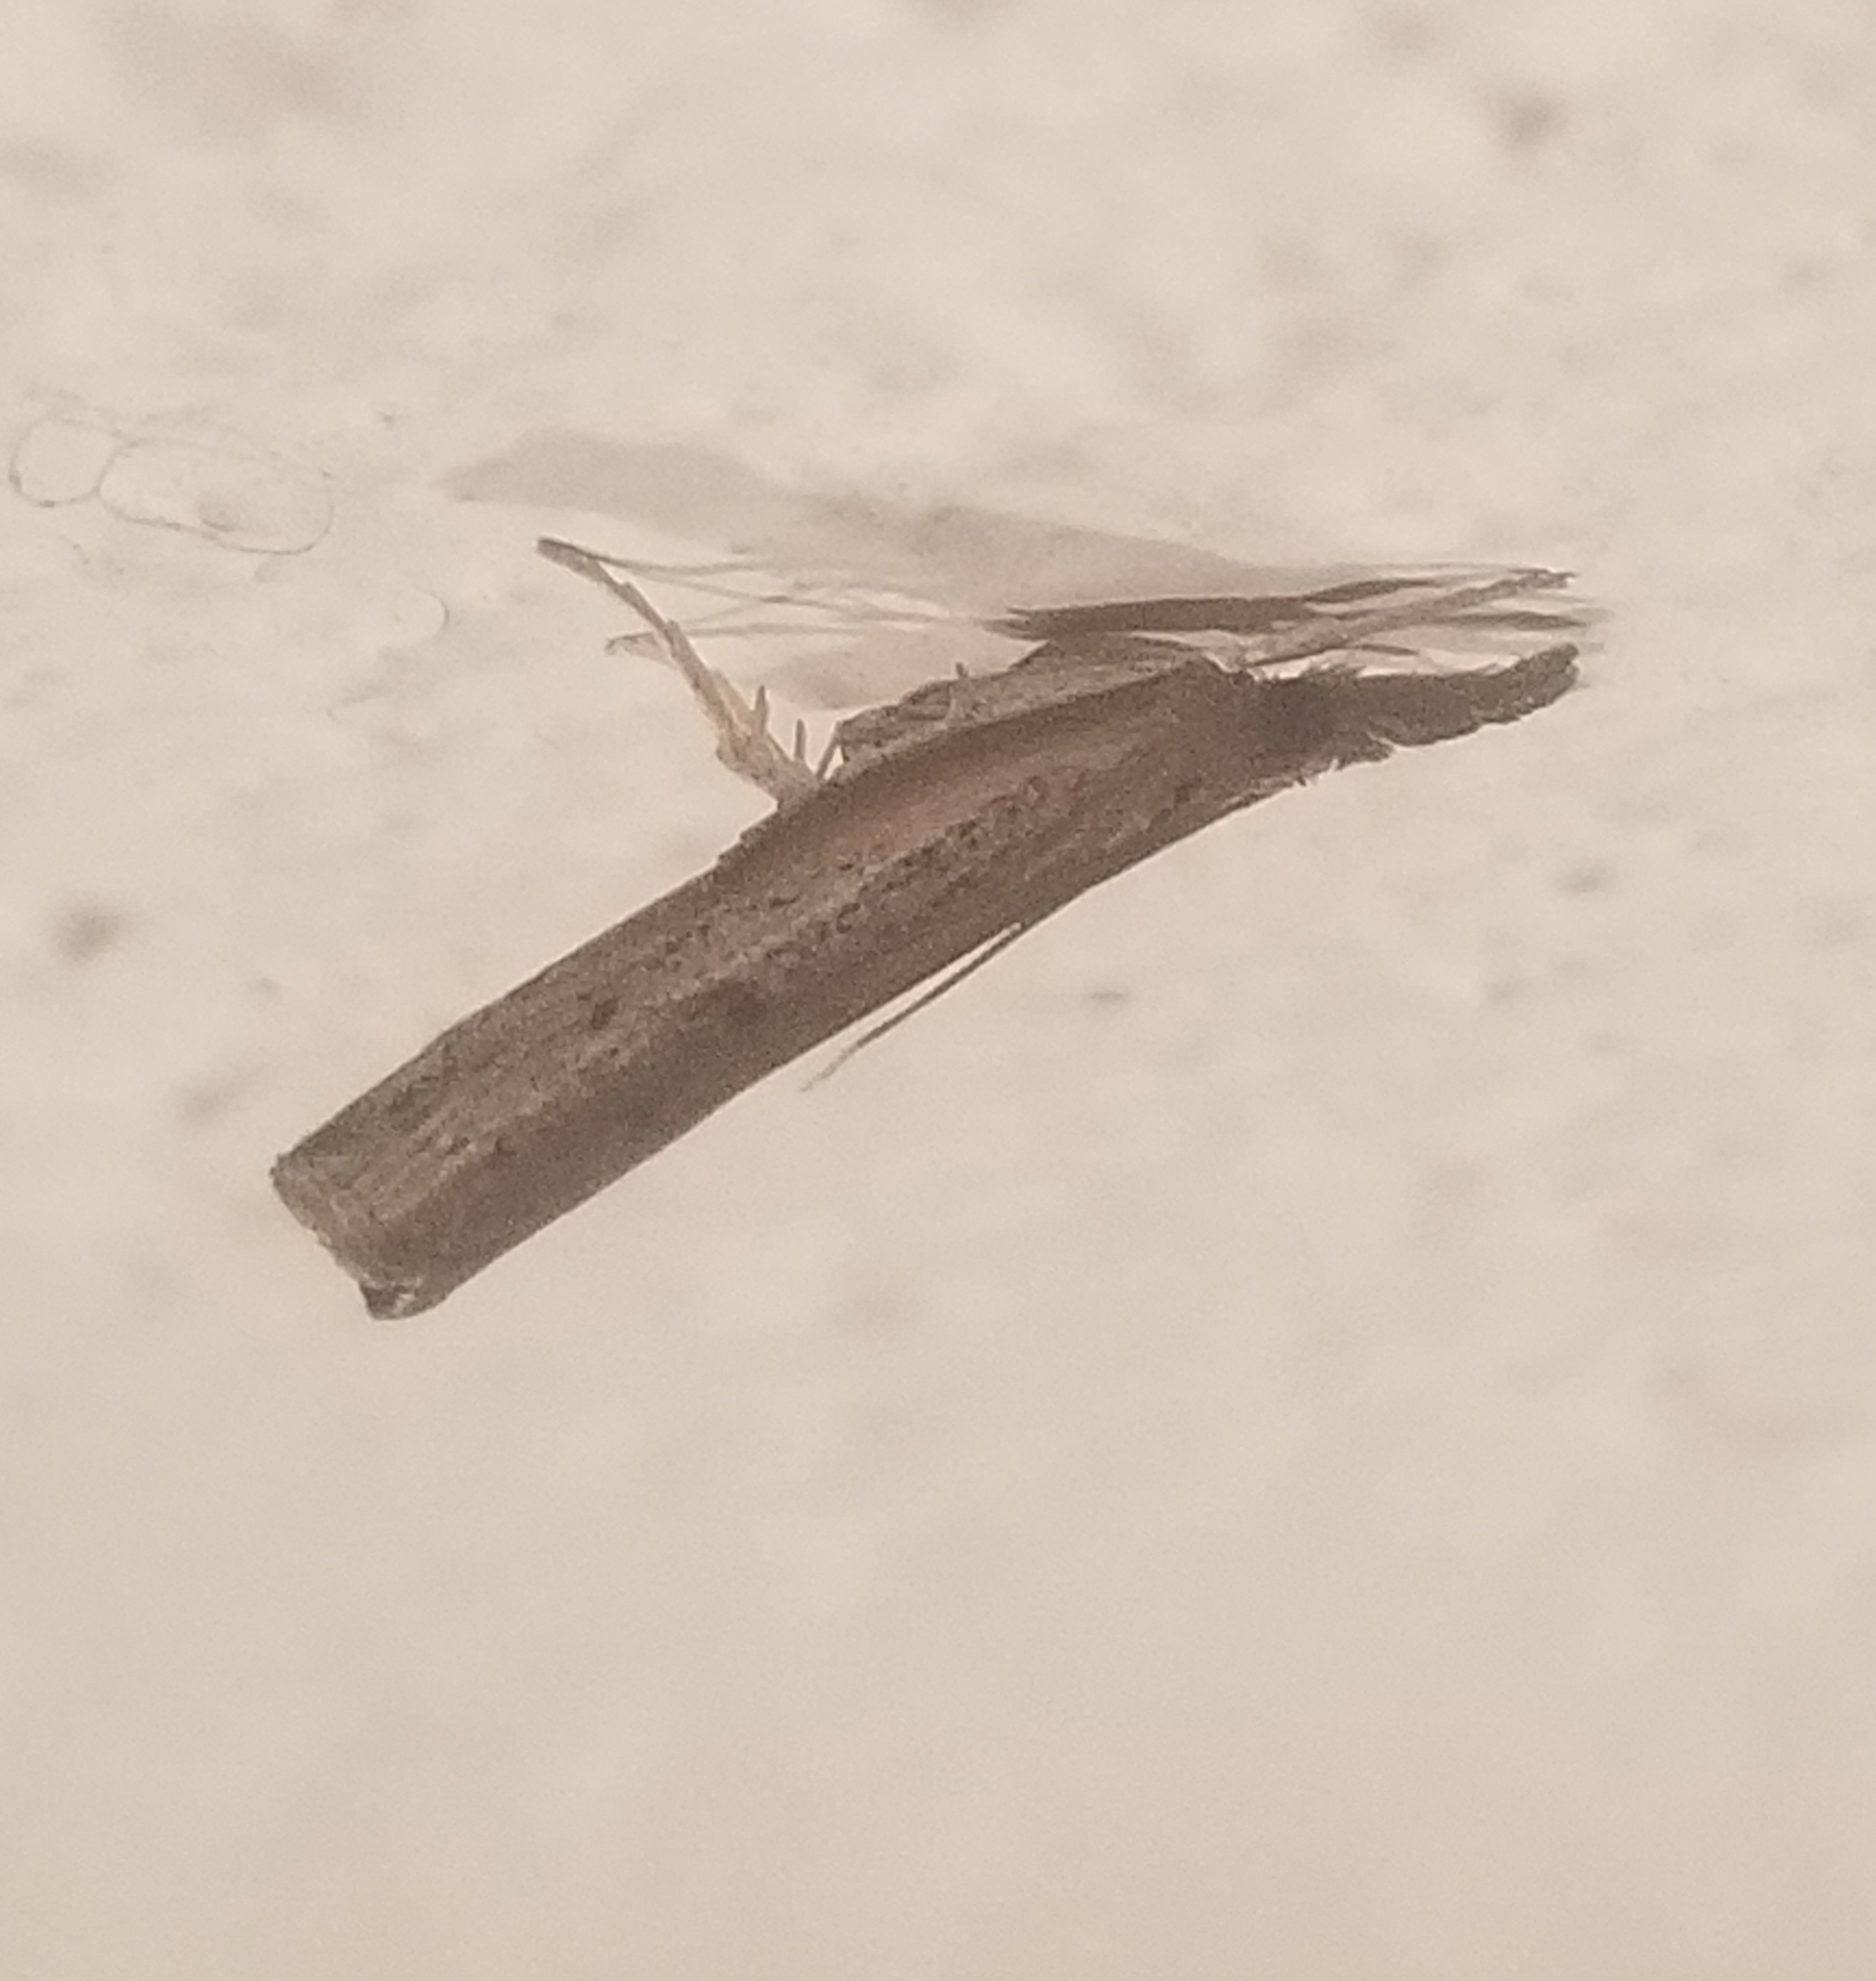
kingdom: Animalia
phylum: Arthropoda
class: Insecta
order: Lepidoptera
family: Crambidae
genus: Fissicrambus
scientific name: Fissicrambus mutabilis
